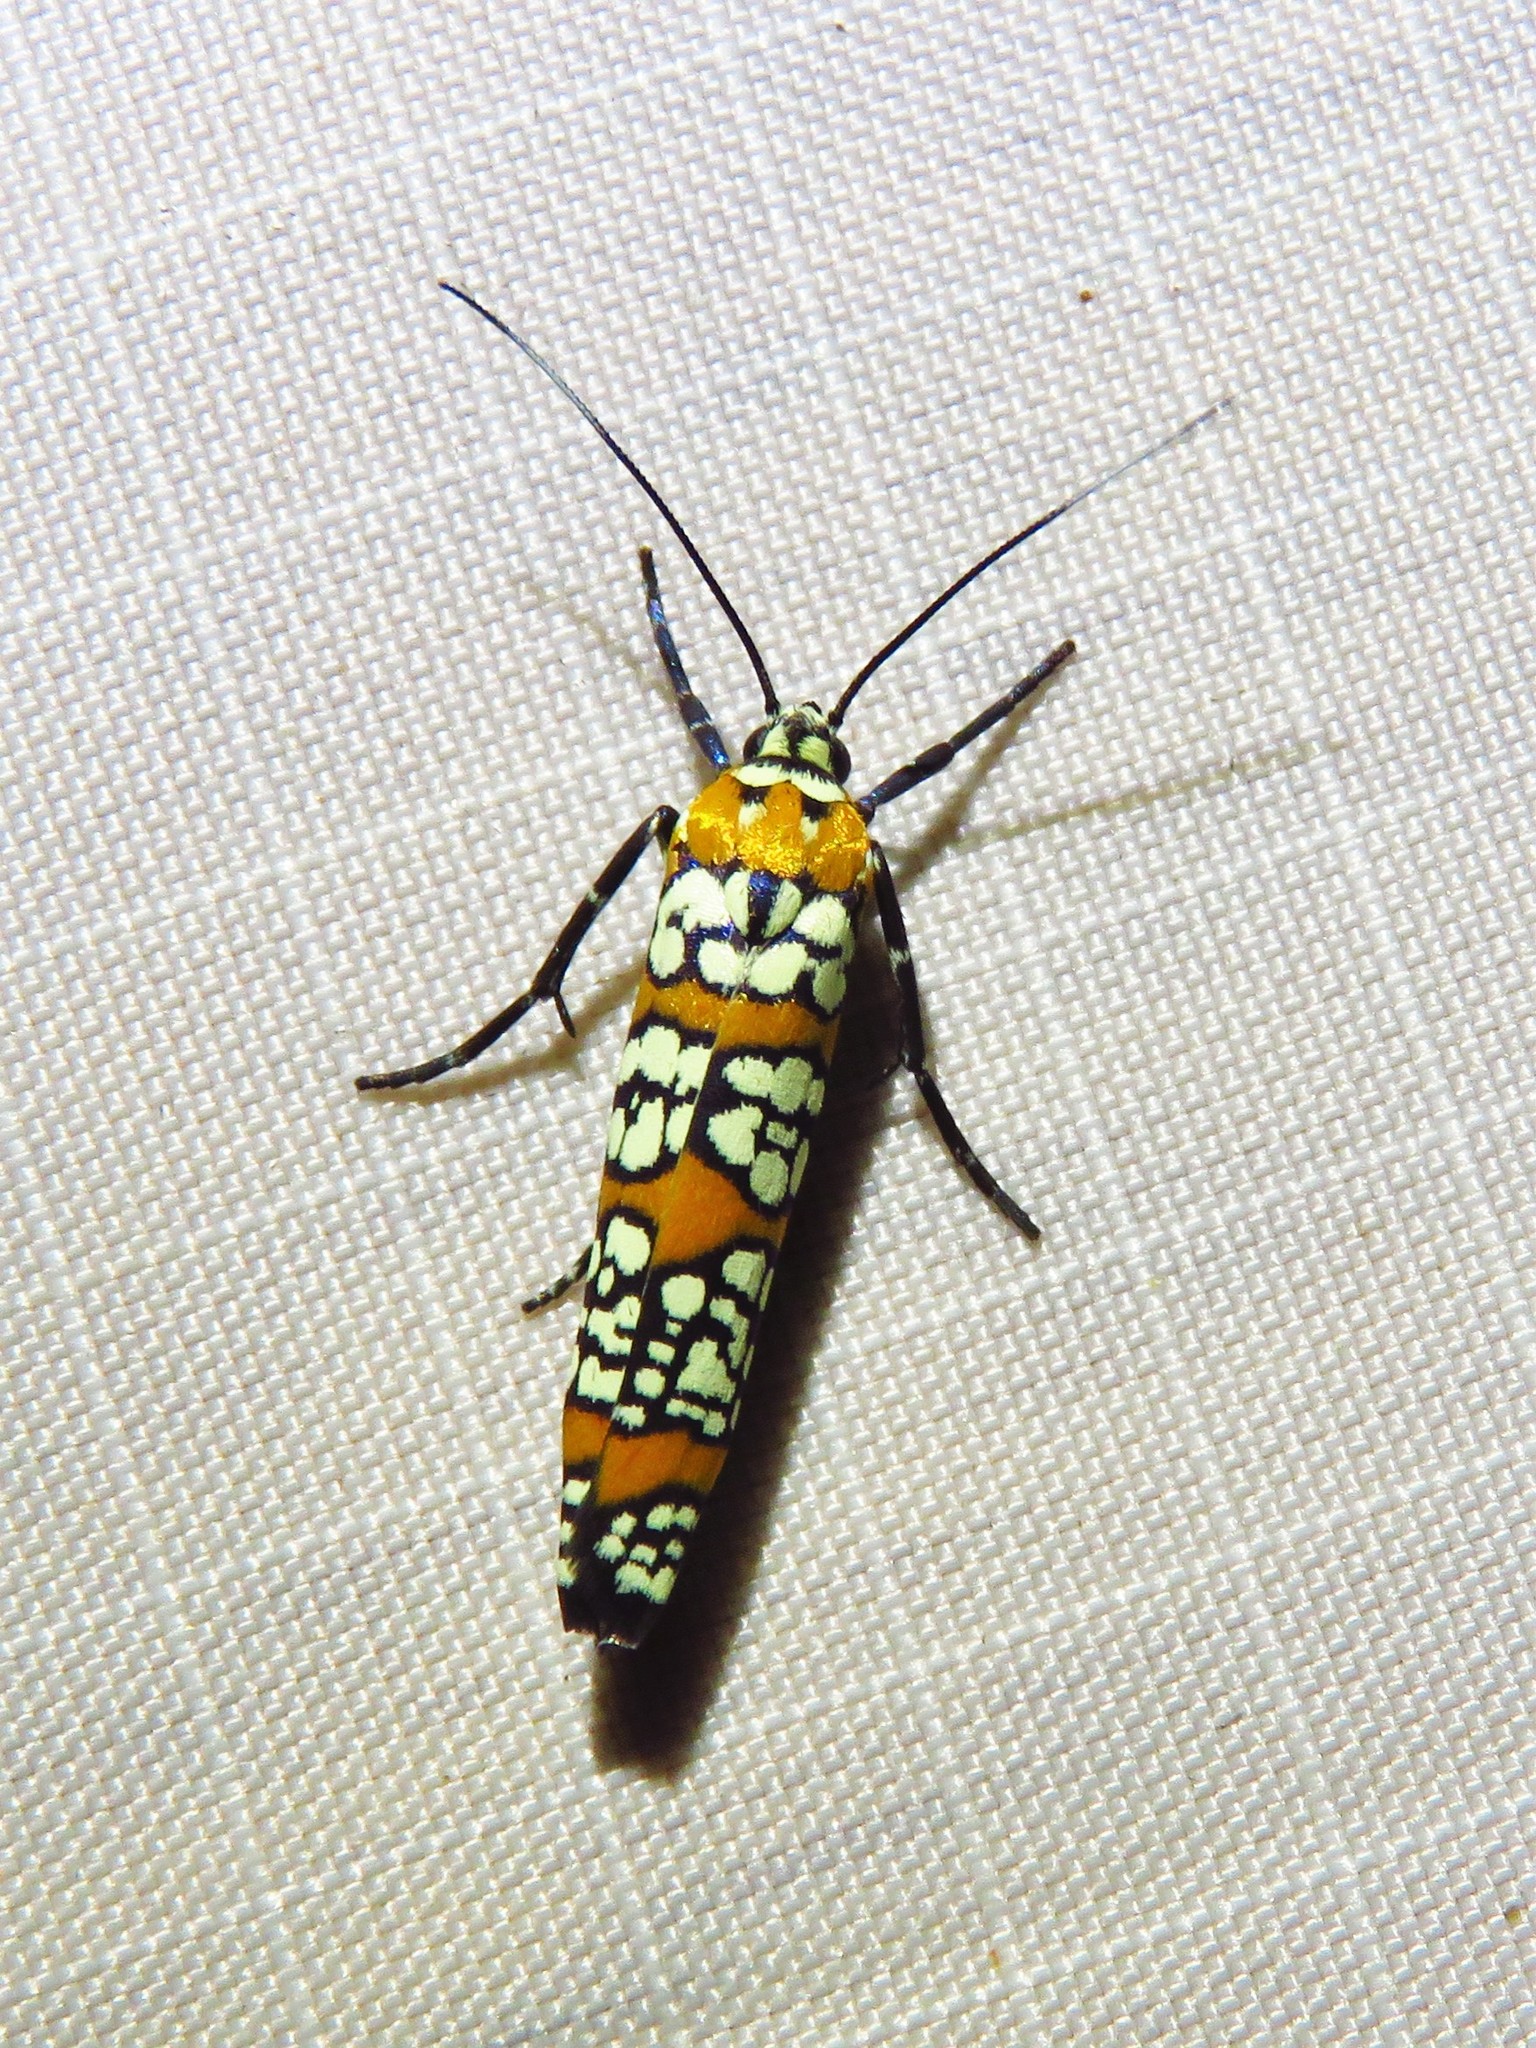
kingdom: Animalia
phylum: Arthropoda
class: Insecta
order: Lepidoptera
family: Attevidae
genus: Atteva
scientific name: Atteva punctella
